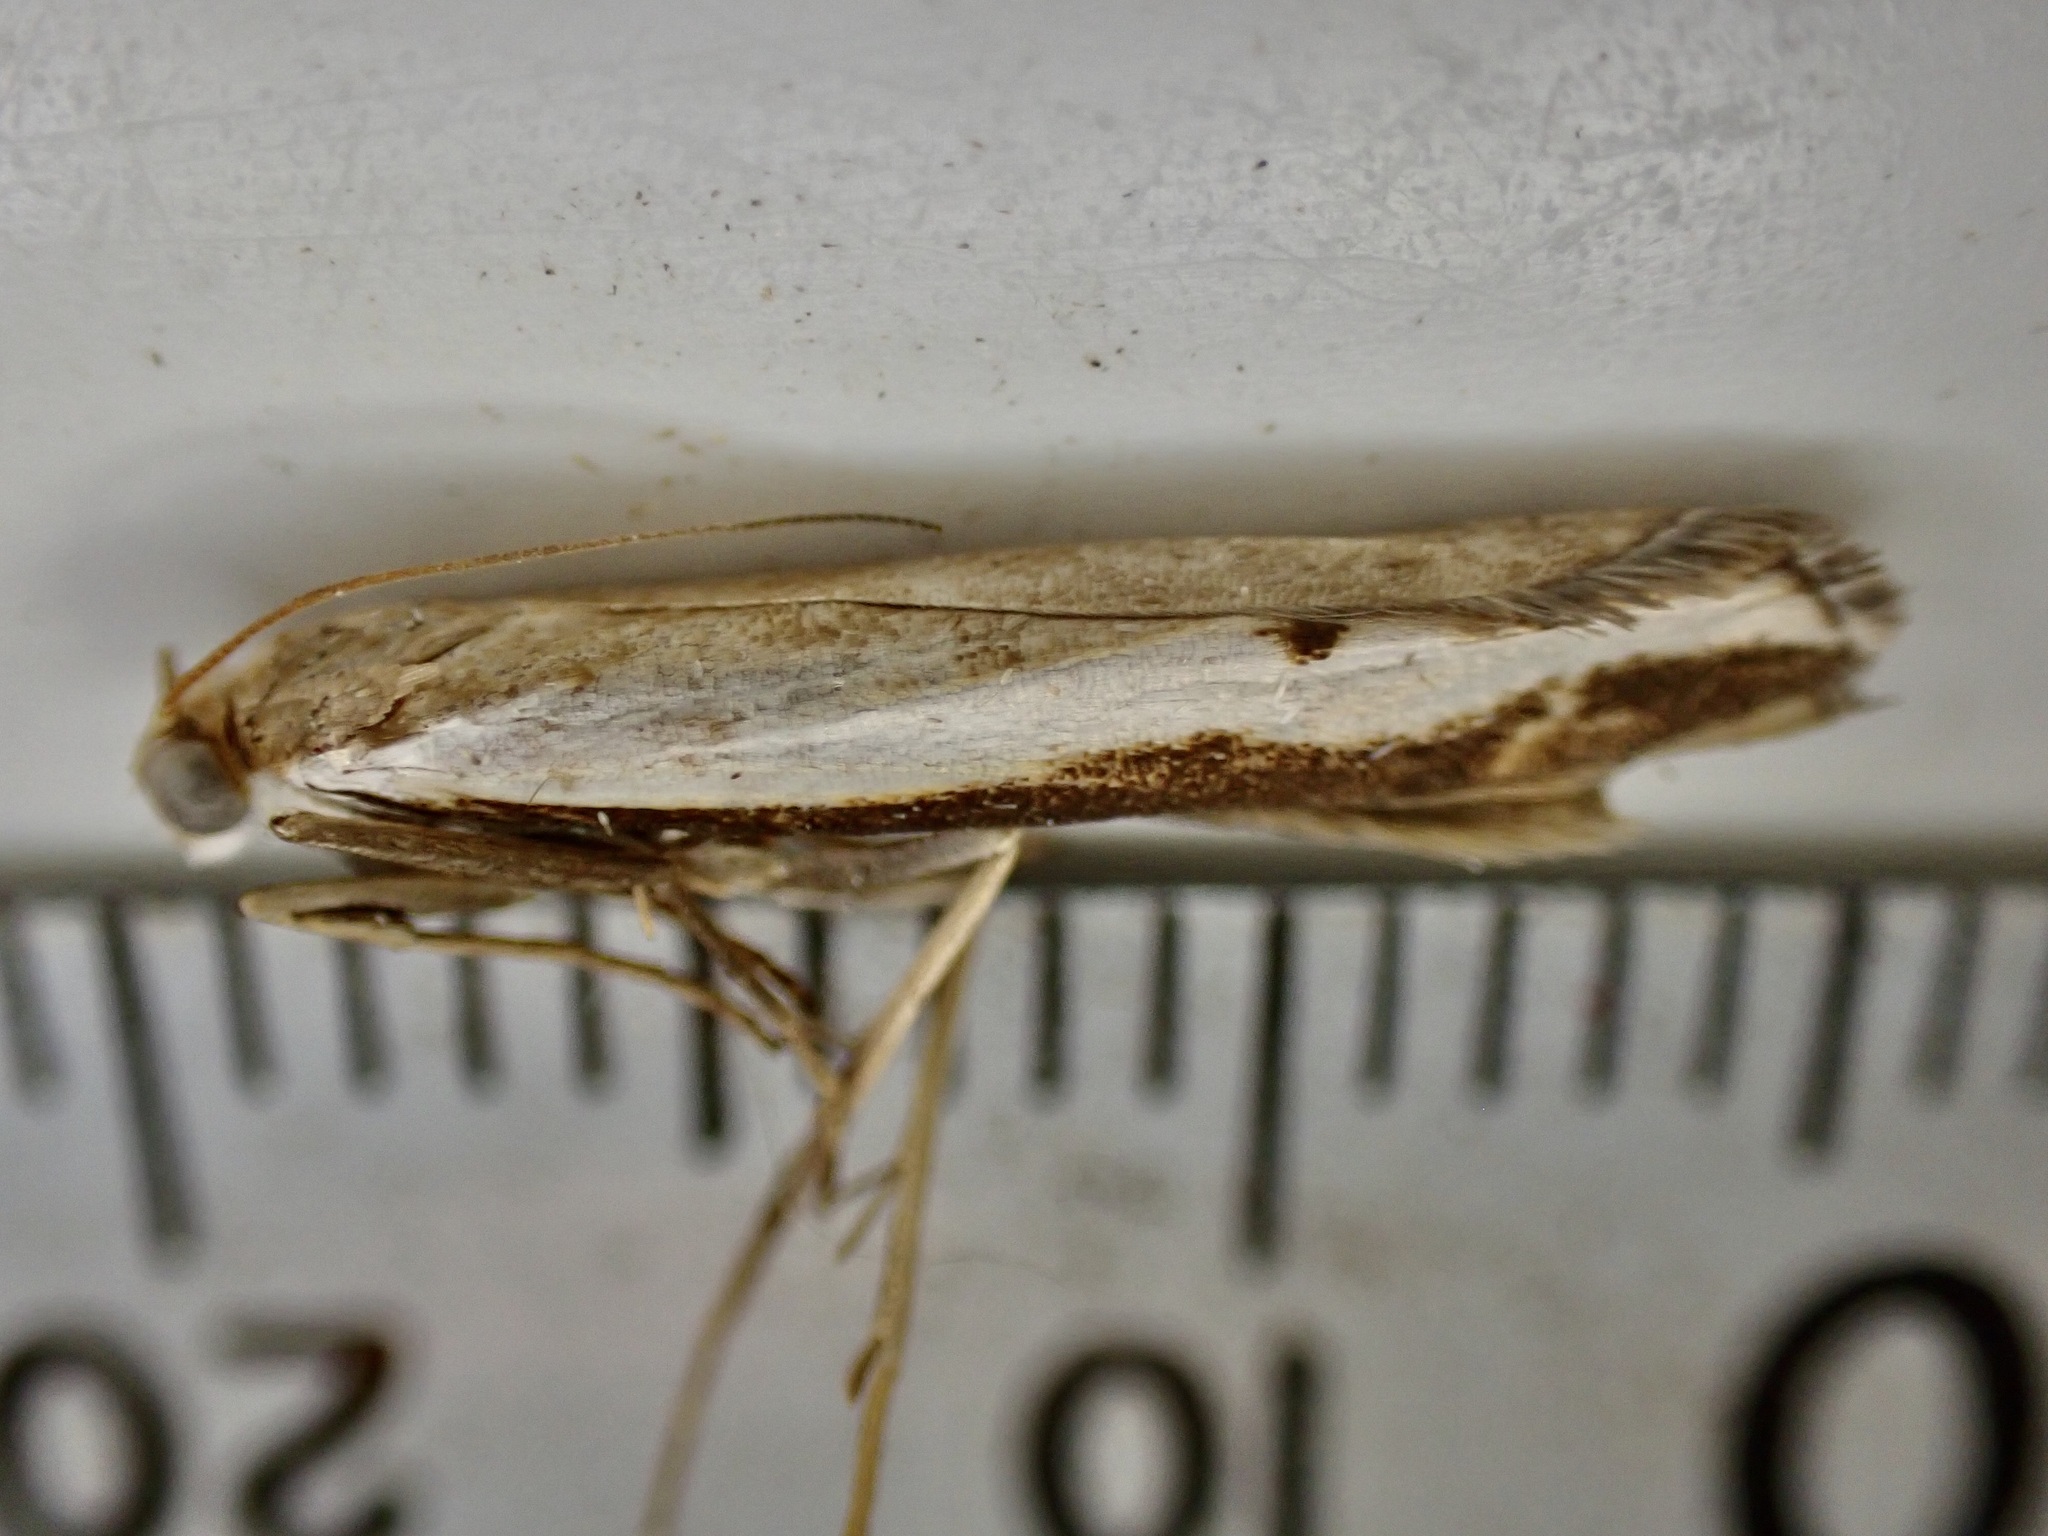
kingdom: Animalia
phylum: Arthropoda
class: Insecta
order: Lepidoptera
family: Crambidae
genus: Orocrambus
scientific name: Orocrambus flexuosellus
